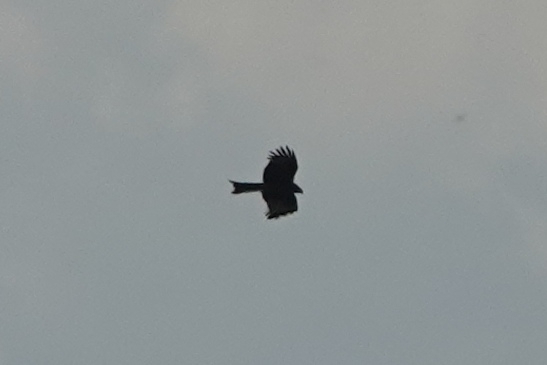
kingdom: Animalia
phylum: Chordata
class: Aves
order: Accipitriformes
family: Accipitridae
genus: Milvus
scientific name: Milvus migrans
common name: Black kite
